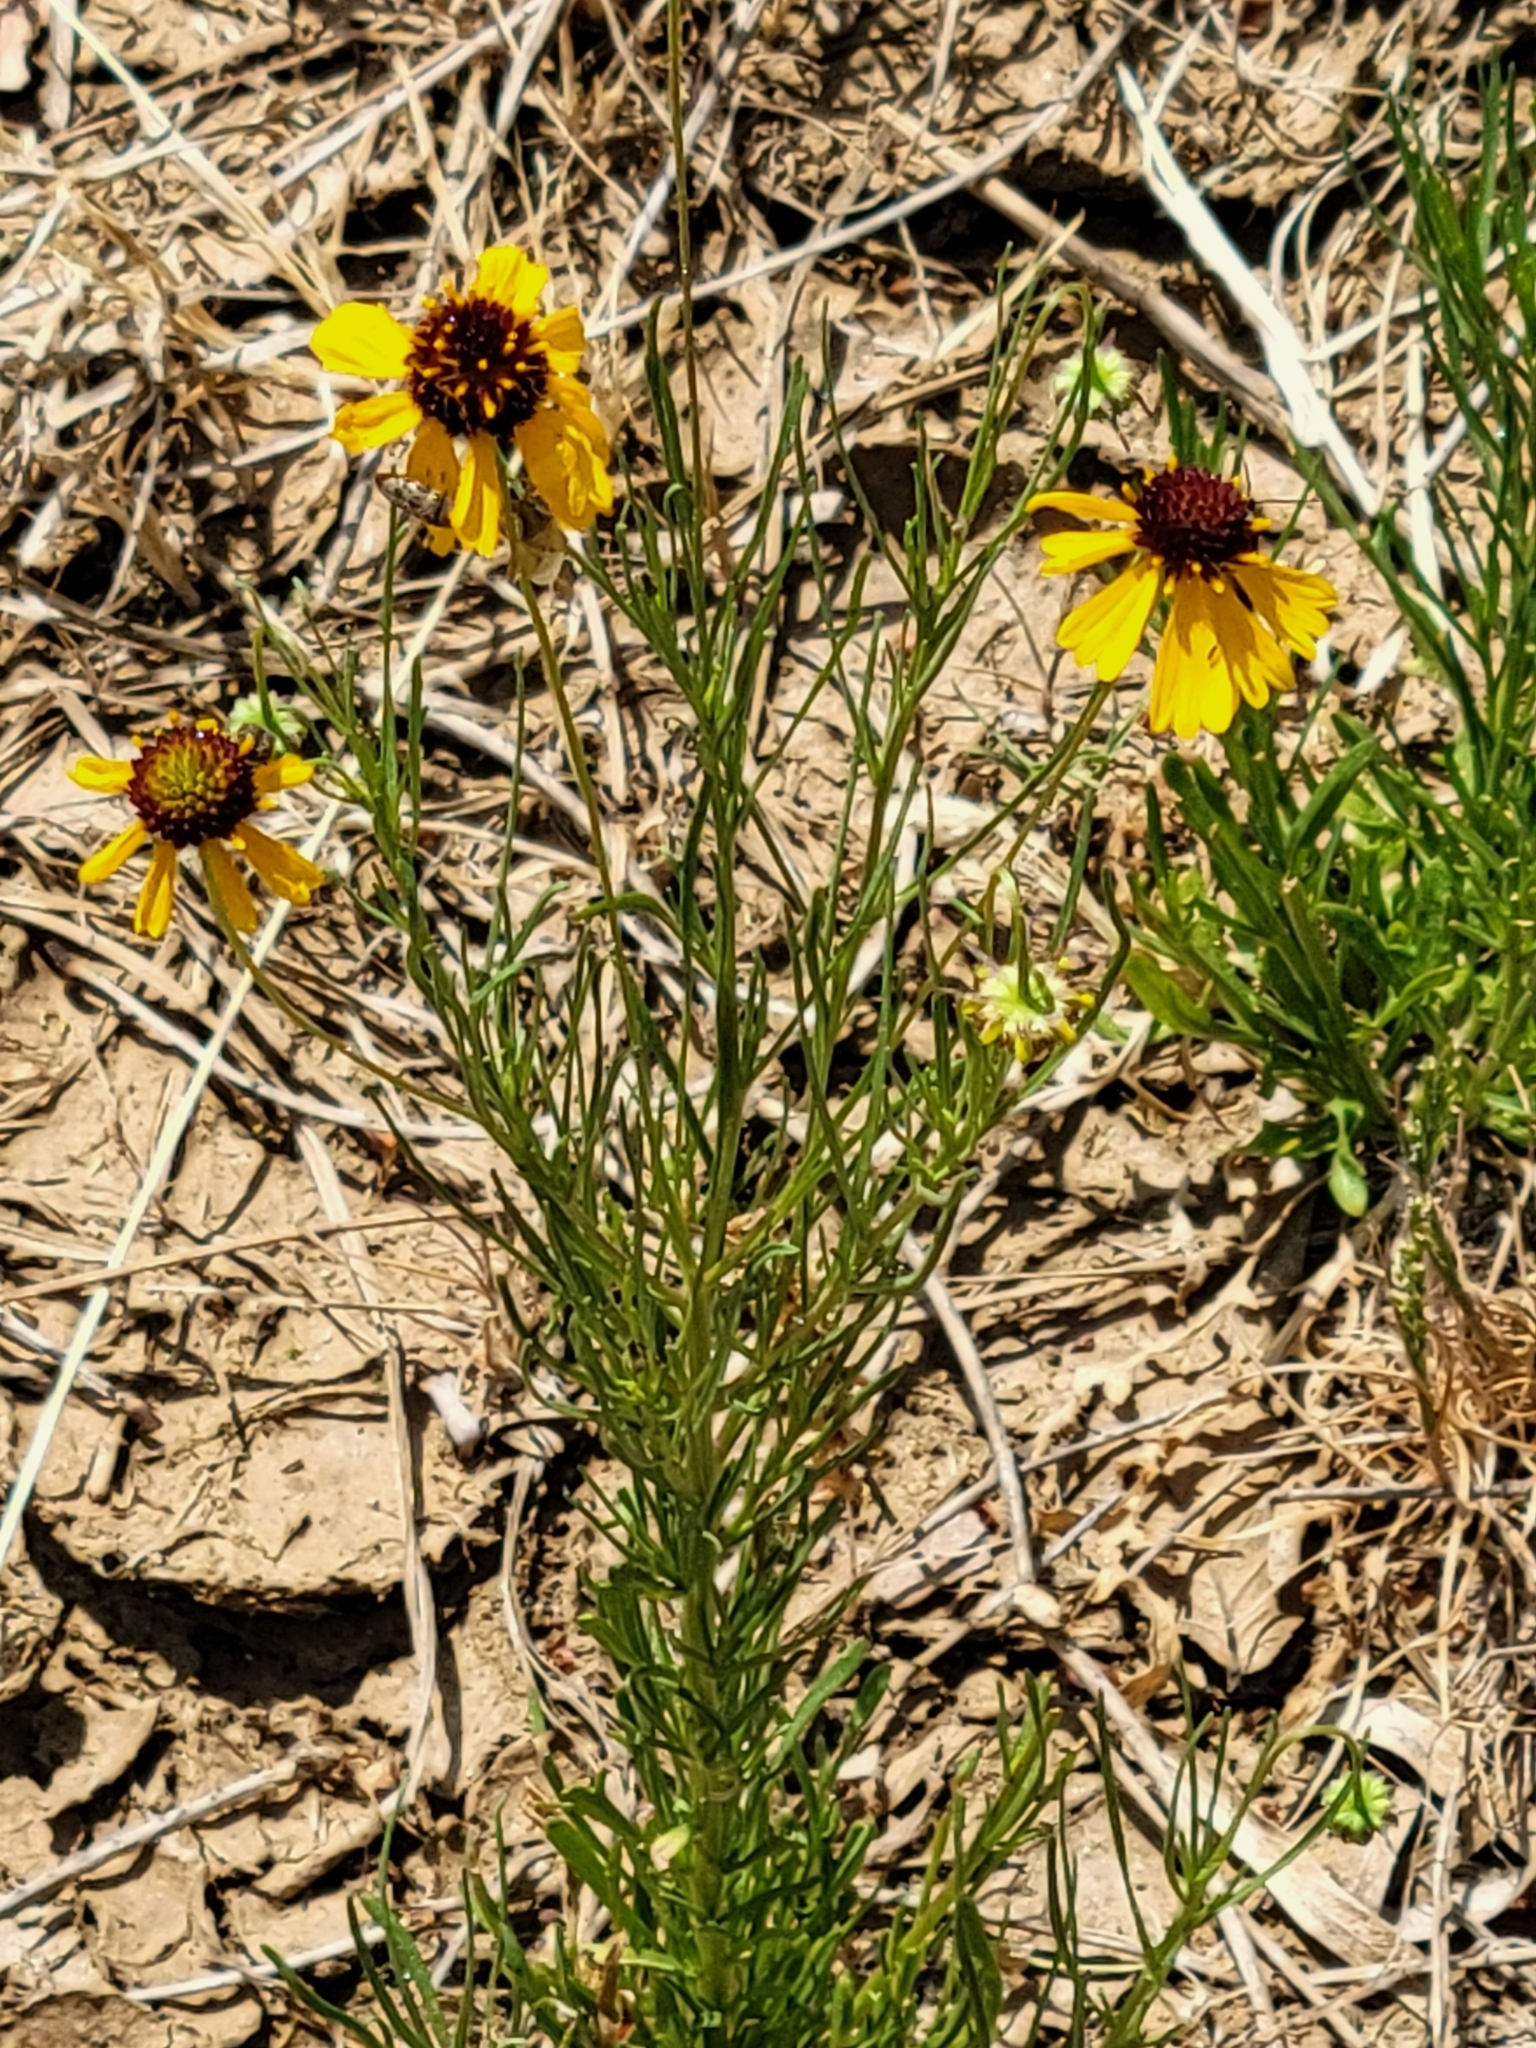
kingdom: Plantae
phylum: Tracheophyta
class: Magnoliopsida
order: Asterales
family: Asteraceae
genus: Helenium
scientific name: Helenium amarum
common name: Bitter sneezeweed
